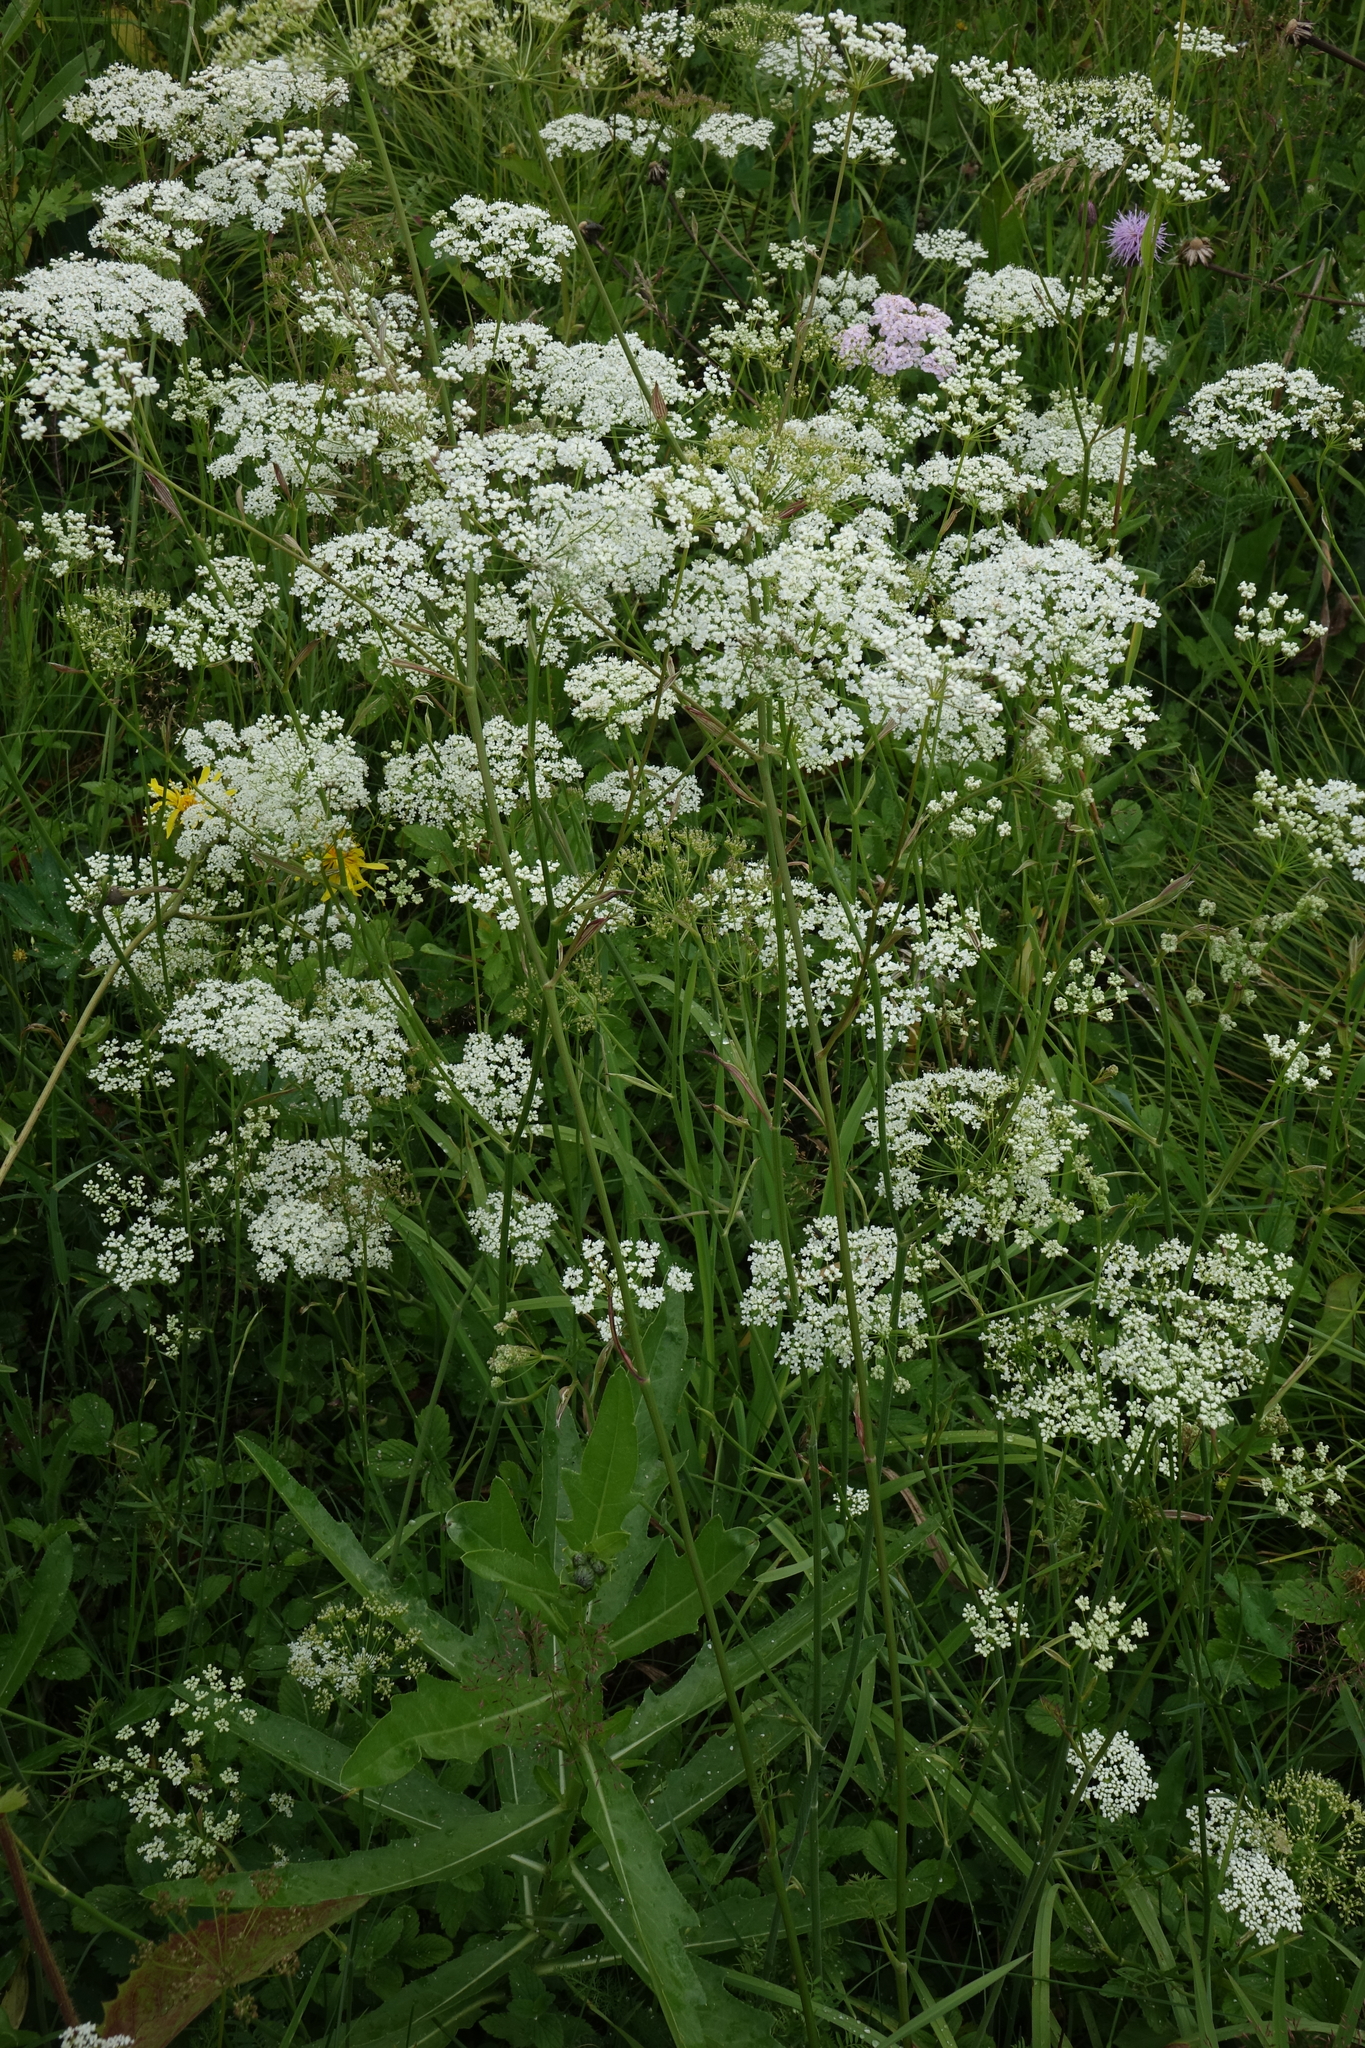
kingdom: Plantae
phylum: Tracheophyta
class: Magnoliopsida
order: Apiales
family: Apiaceae
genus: Pimpinella
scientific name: Pimpinella saxifraga
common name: Burnet-saxifrage
